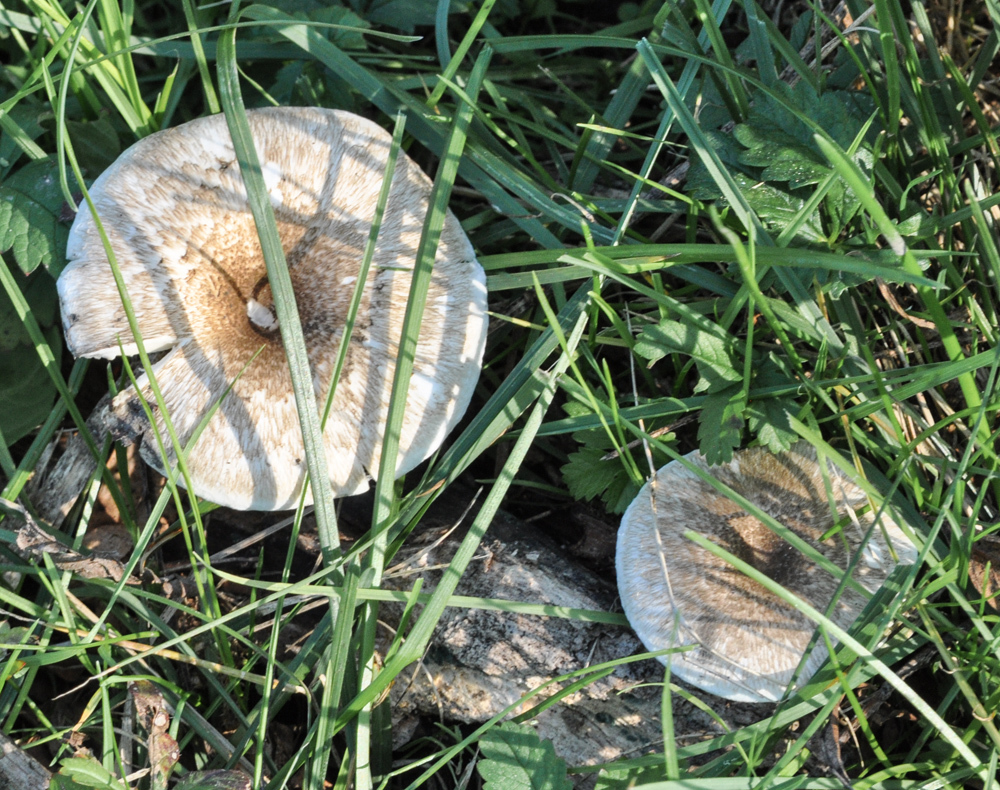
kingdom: Fungi
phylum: Basidiomycota
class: Agaricomycetes
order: Polyporales
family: Polyporaceae
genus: Lentinus
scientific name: Lentinus tigrinus
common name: Tiger sawgill
